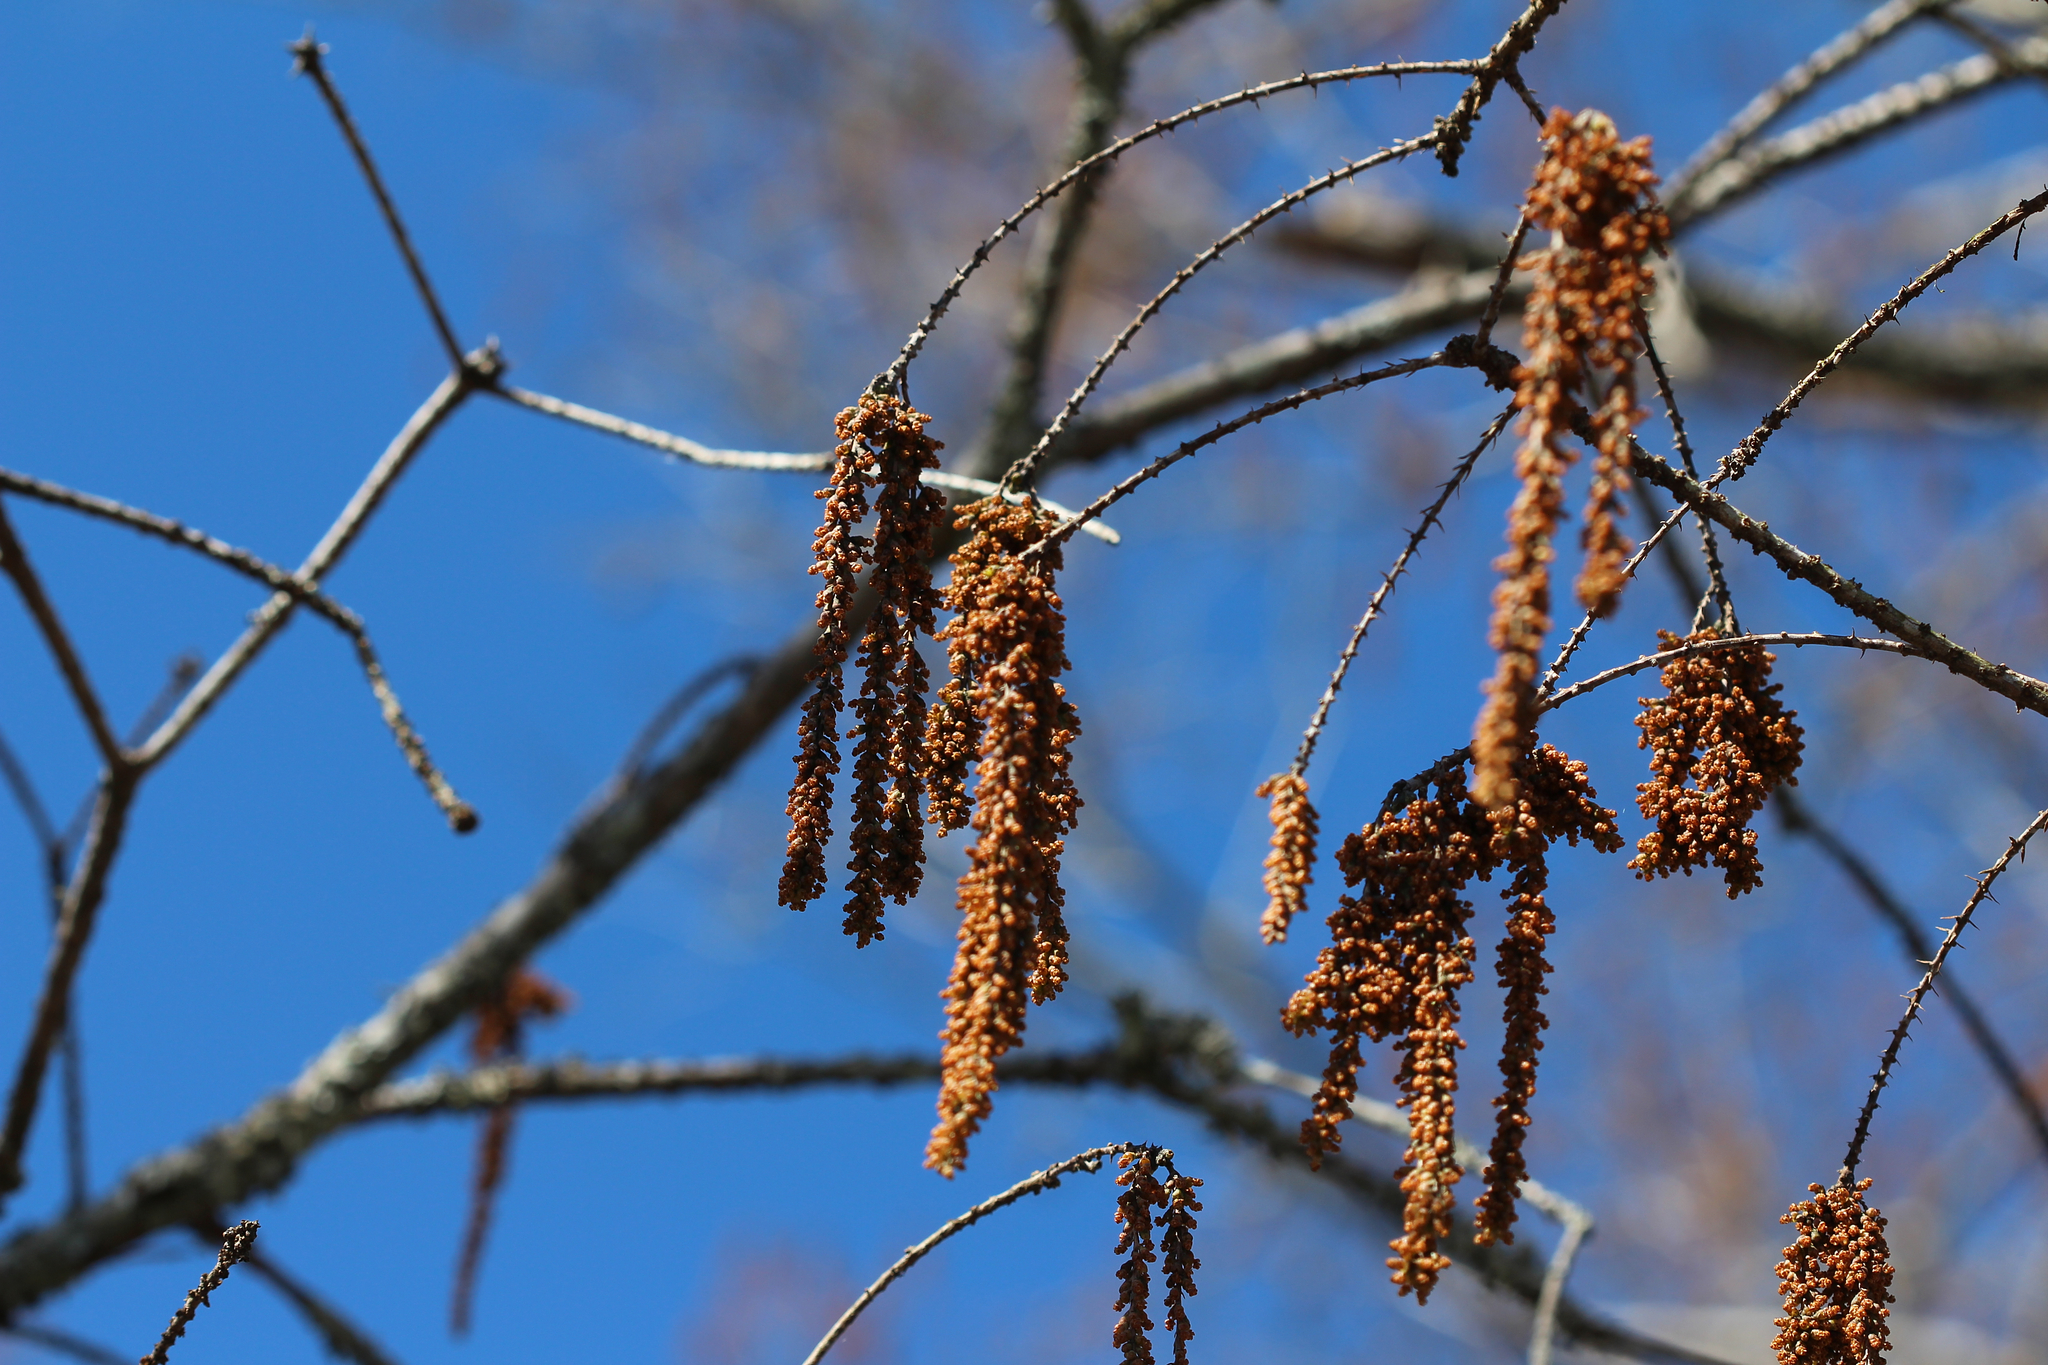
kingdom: Plantae
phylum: Tracheophyta
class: Pinopsida
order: Pinales
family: Cupressaceae
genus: Taxodium
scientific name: Taxodium distichum
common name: Bald cypress
